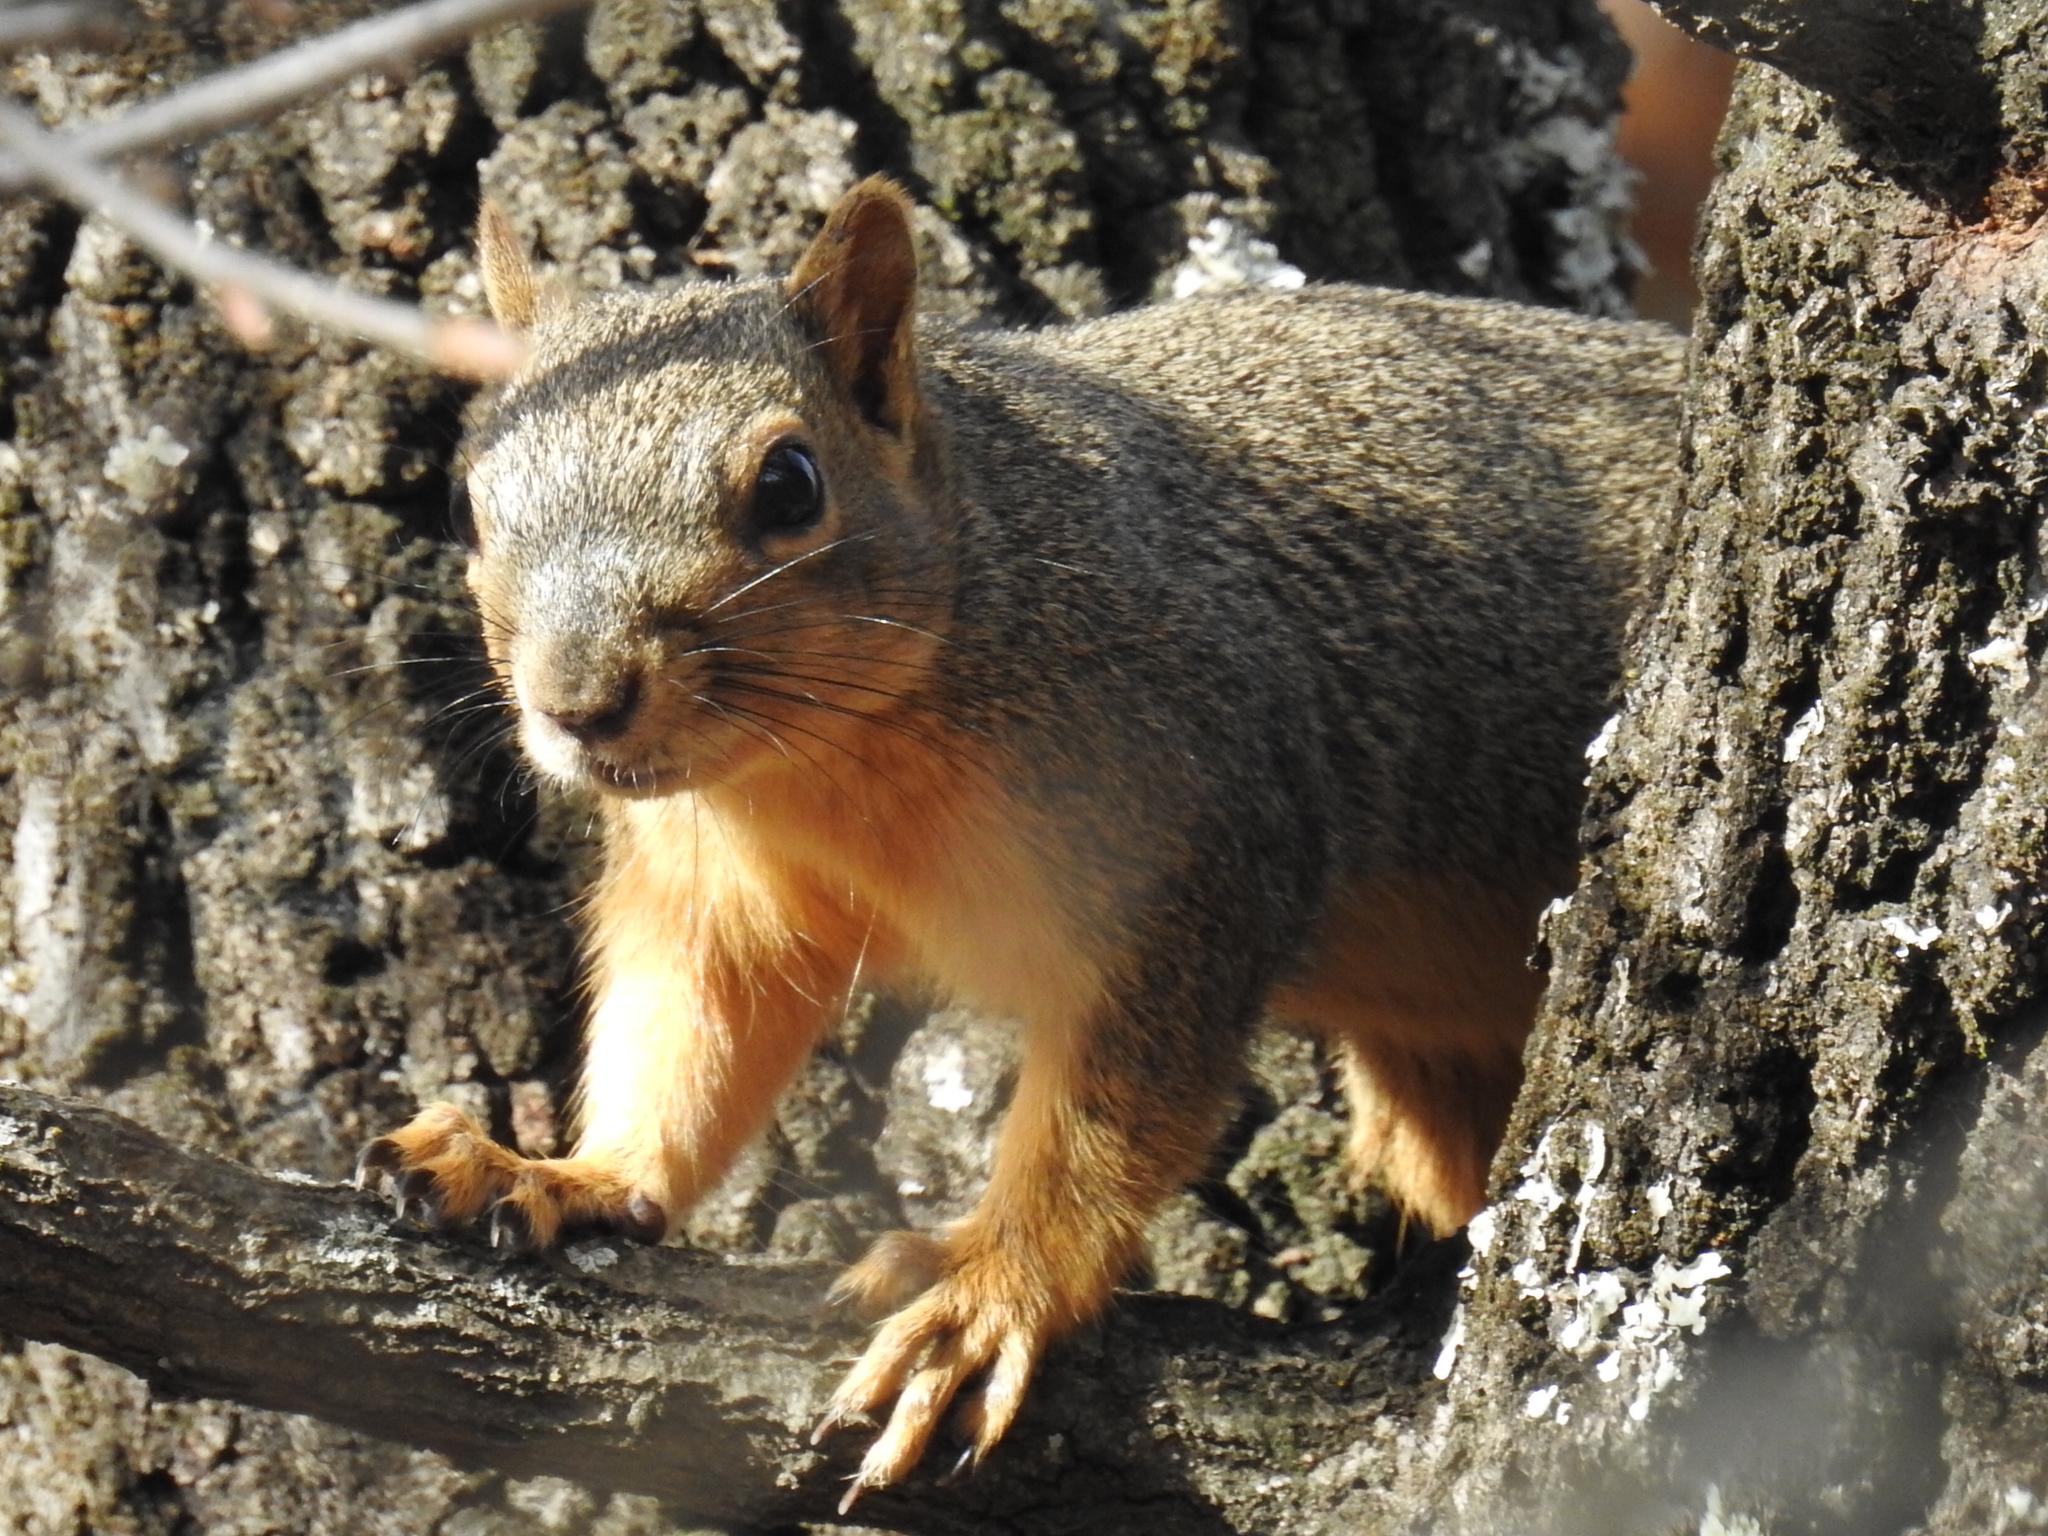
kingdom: Animalia
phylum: Chordata
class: Mammalia
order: Rodentia
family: Sciuridae
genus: Sciurus
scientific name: Sciurus niger
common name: Fox squirrel
